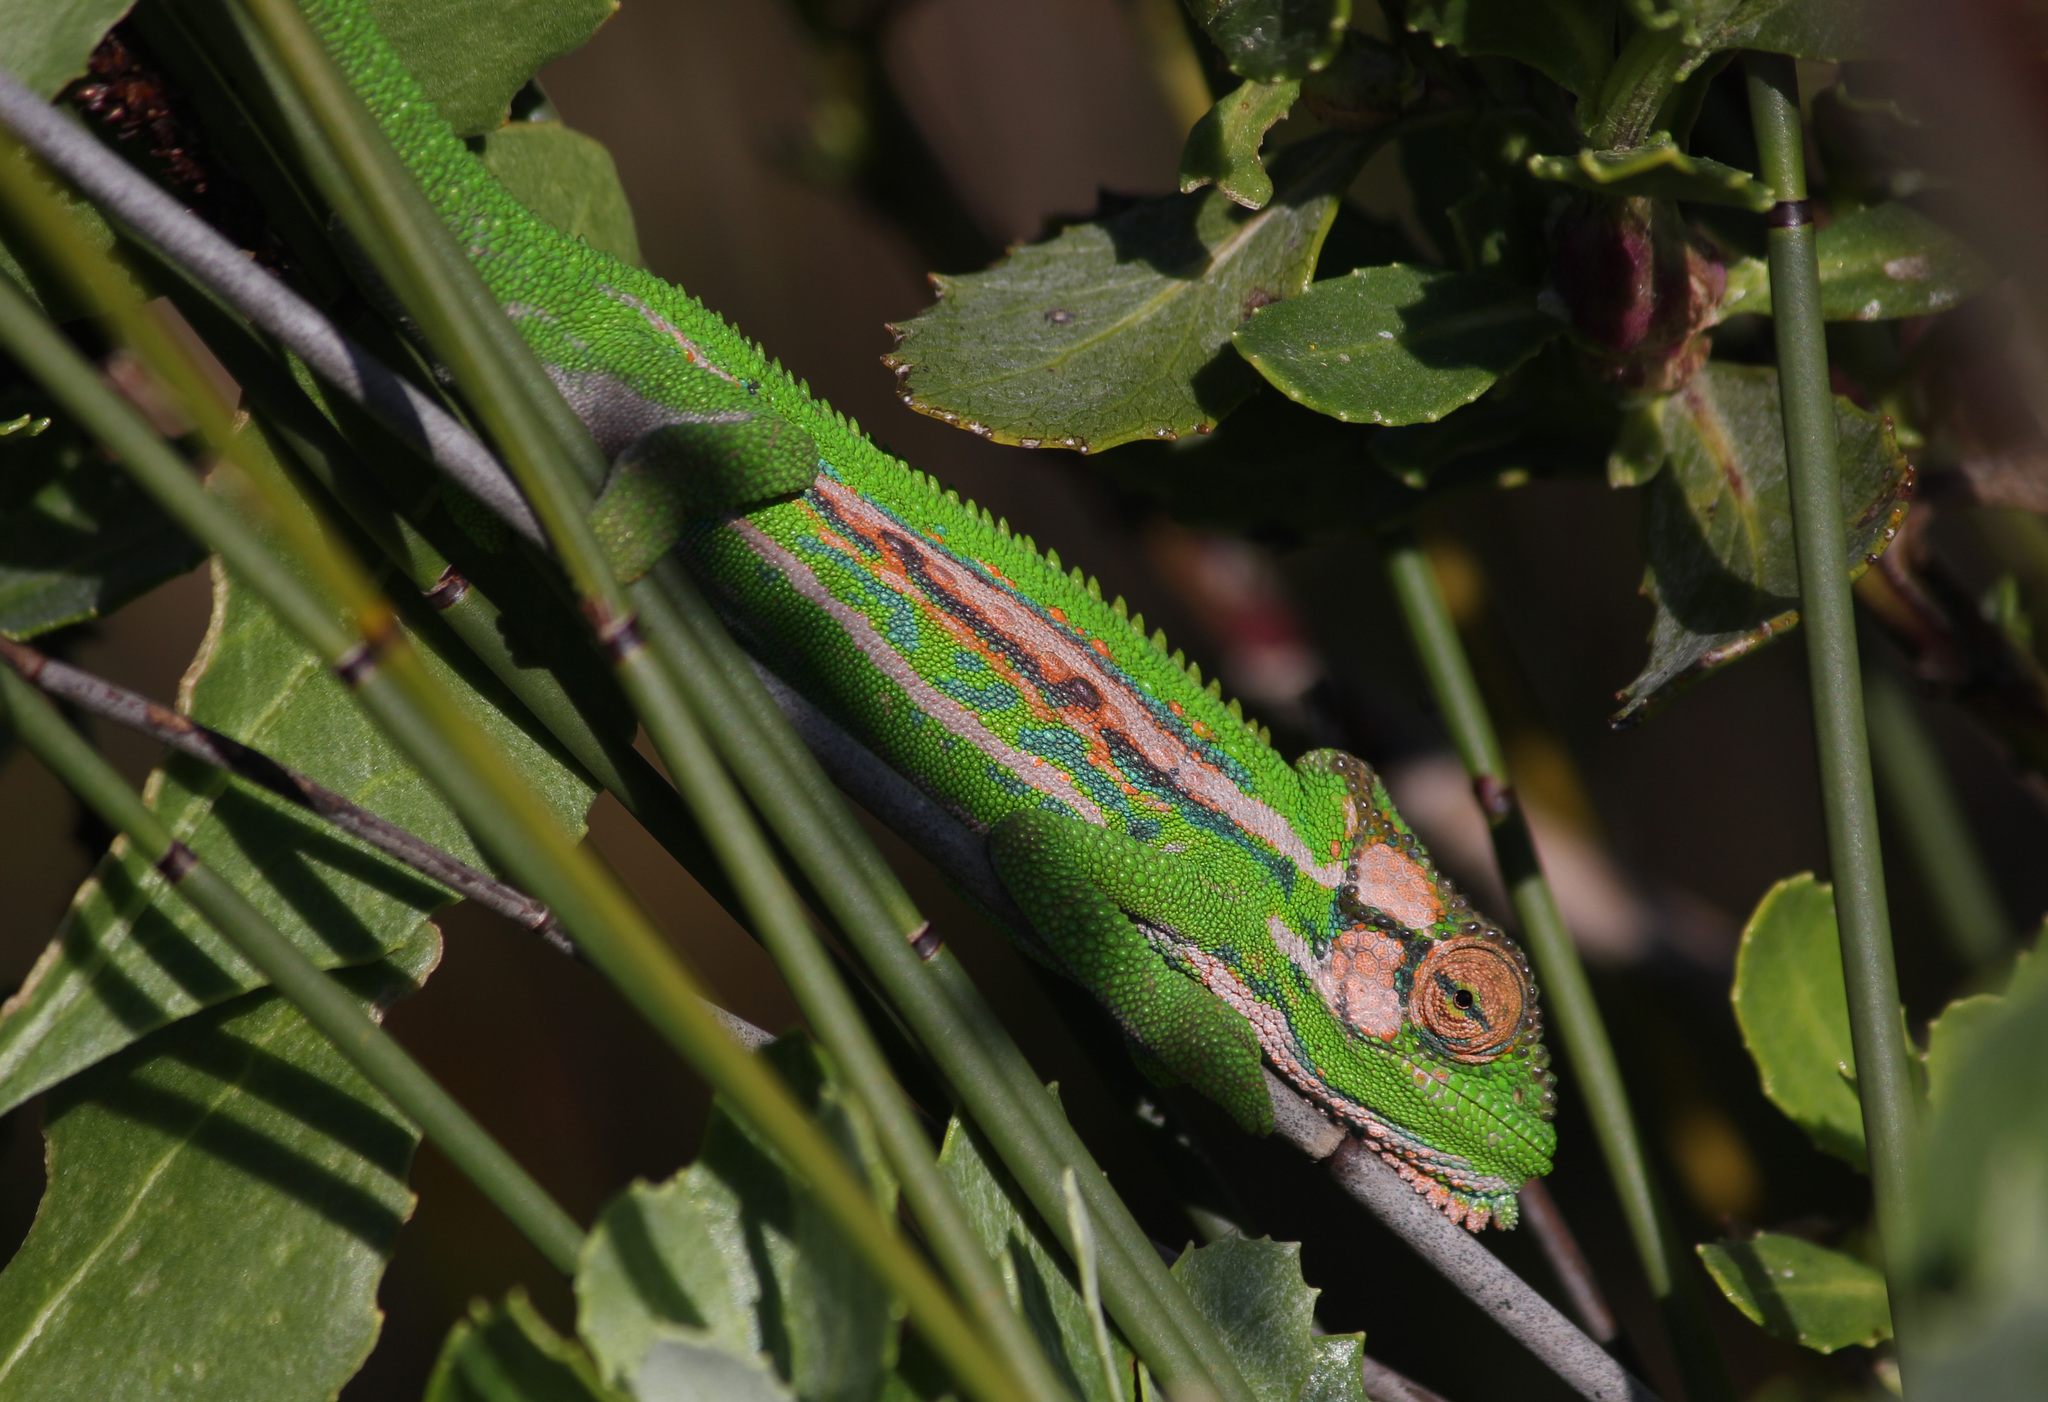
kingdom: Animalia
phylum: Chordata
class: Squamata
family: Chamaeleonidae
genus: Bradypodion
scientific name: Bradypodion pumilum
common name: Cape dwarf chameleon
